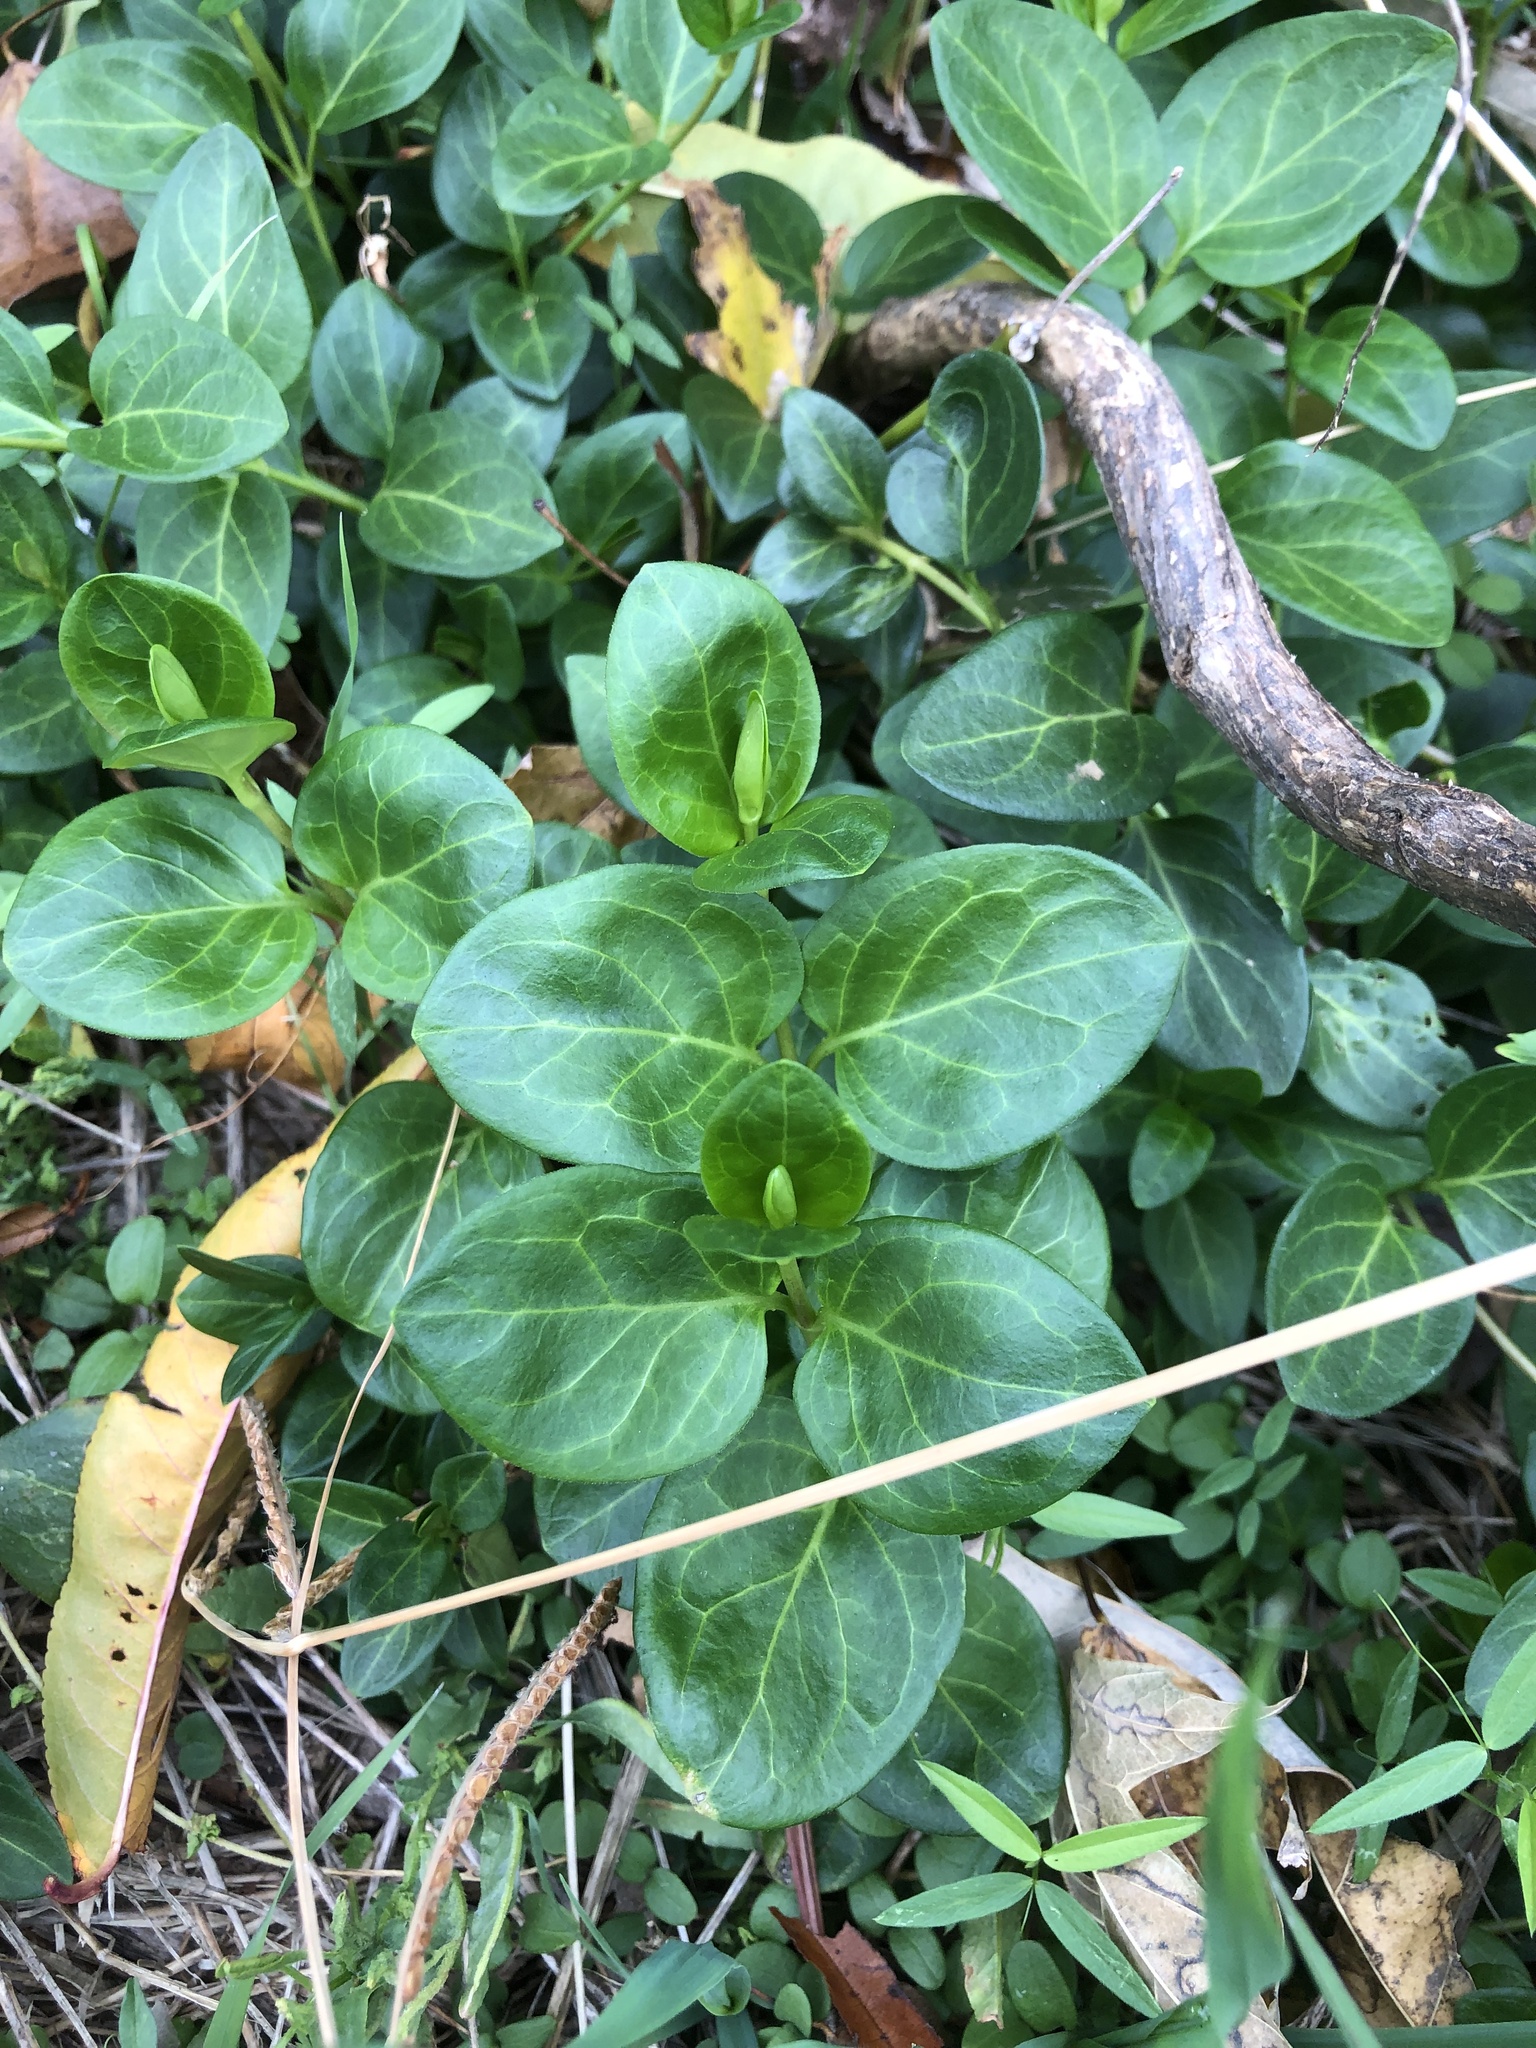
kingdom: Plantae
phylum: Tracheophyta
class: Magnoliopsida
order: Gentianales
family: Apocynaceae
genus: Vinca
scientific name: Vinca major
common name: Greater periwinkle
